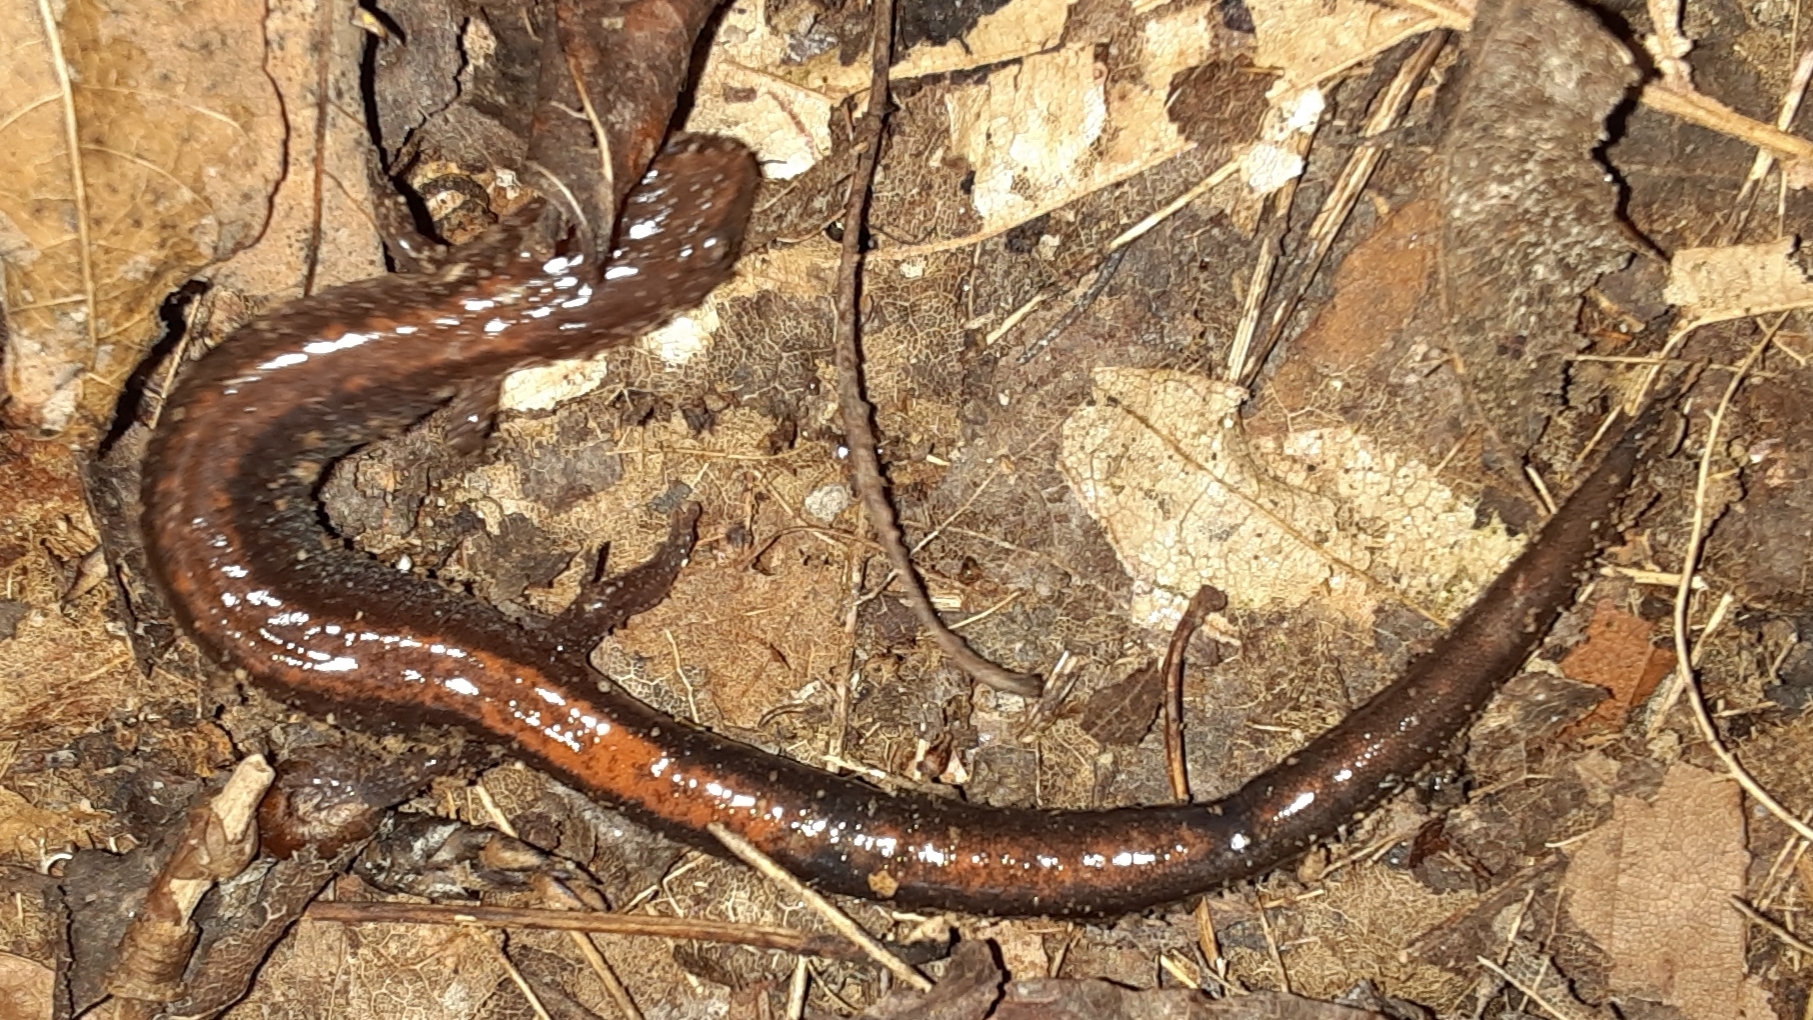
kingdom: Animalia
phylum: Chordata
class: Amphibia
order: Caudata
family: Plethodontidae
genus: Plethodon
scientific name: Plethodon cinereus
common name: Redback salamander
